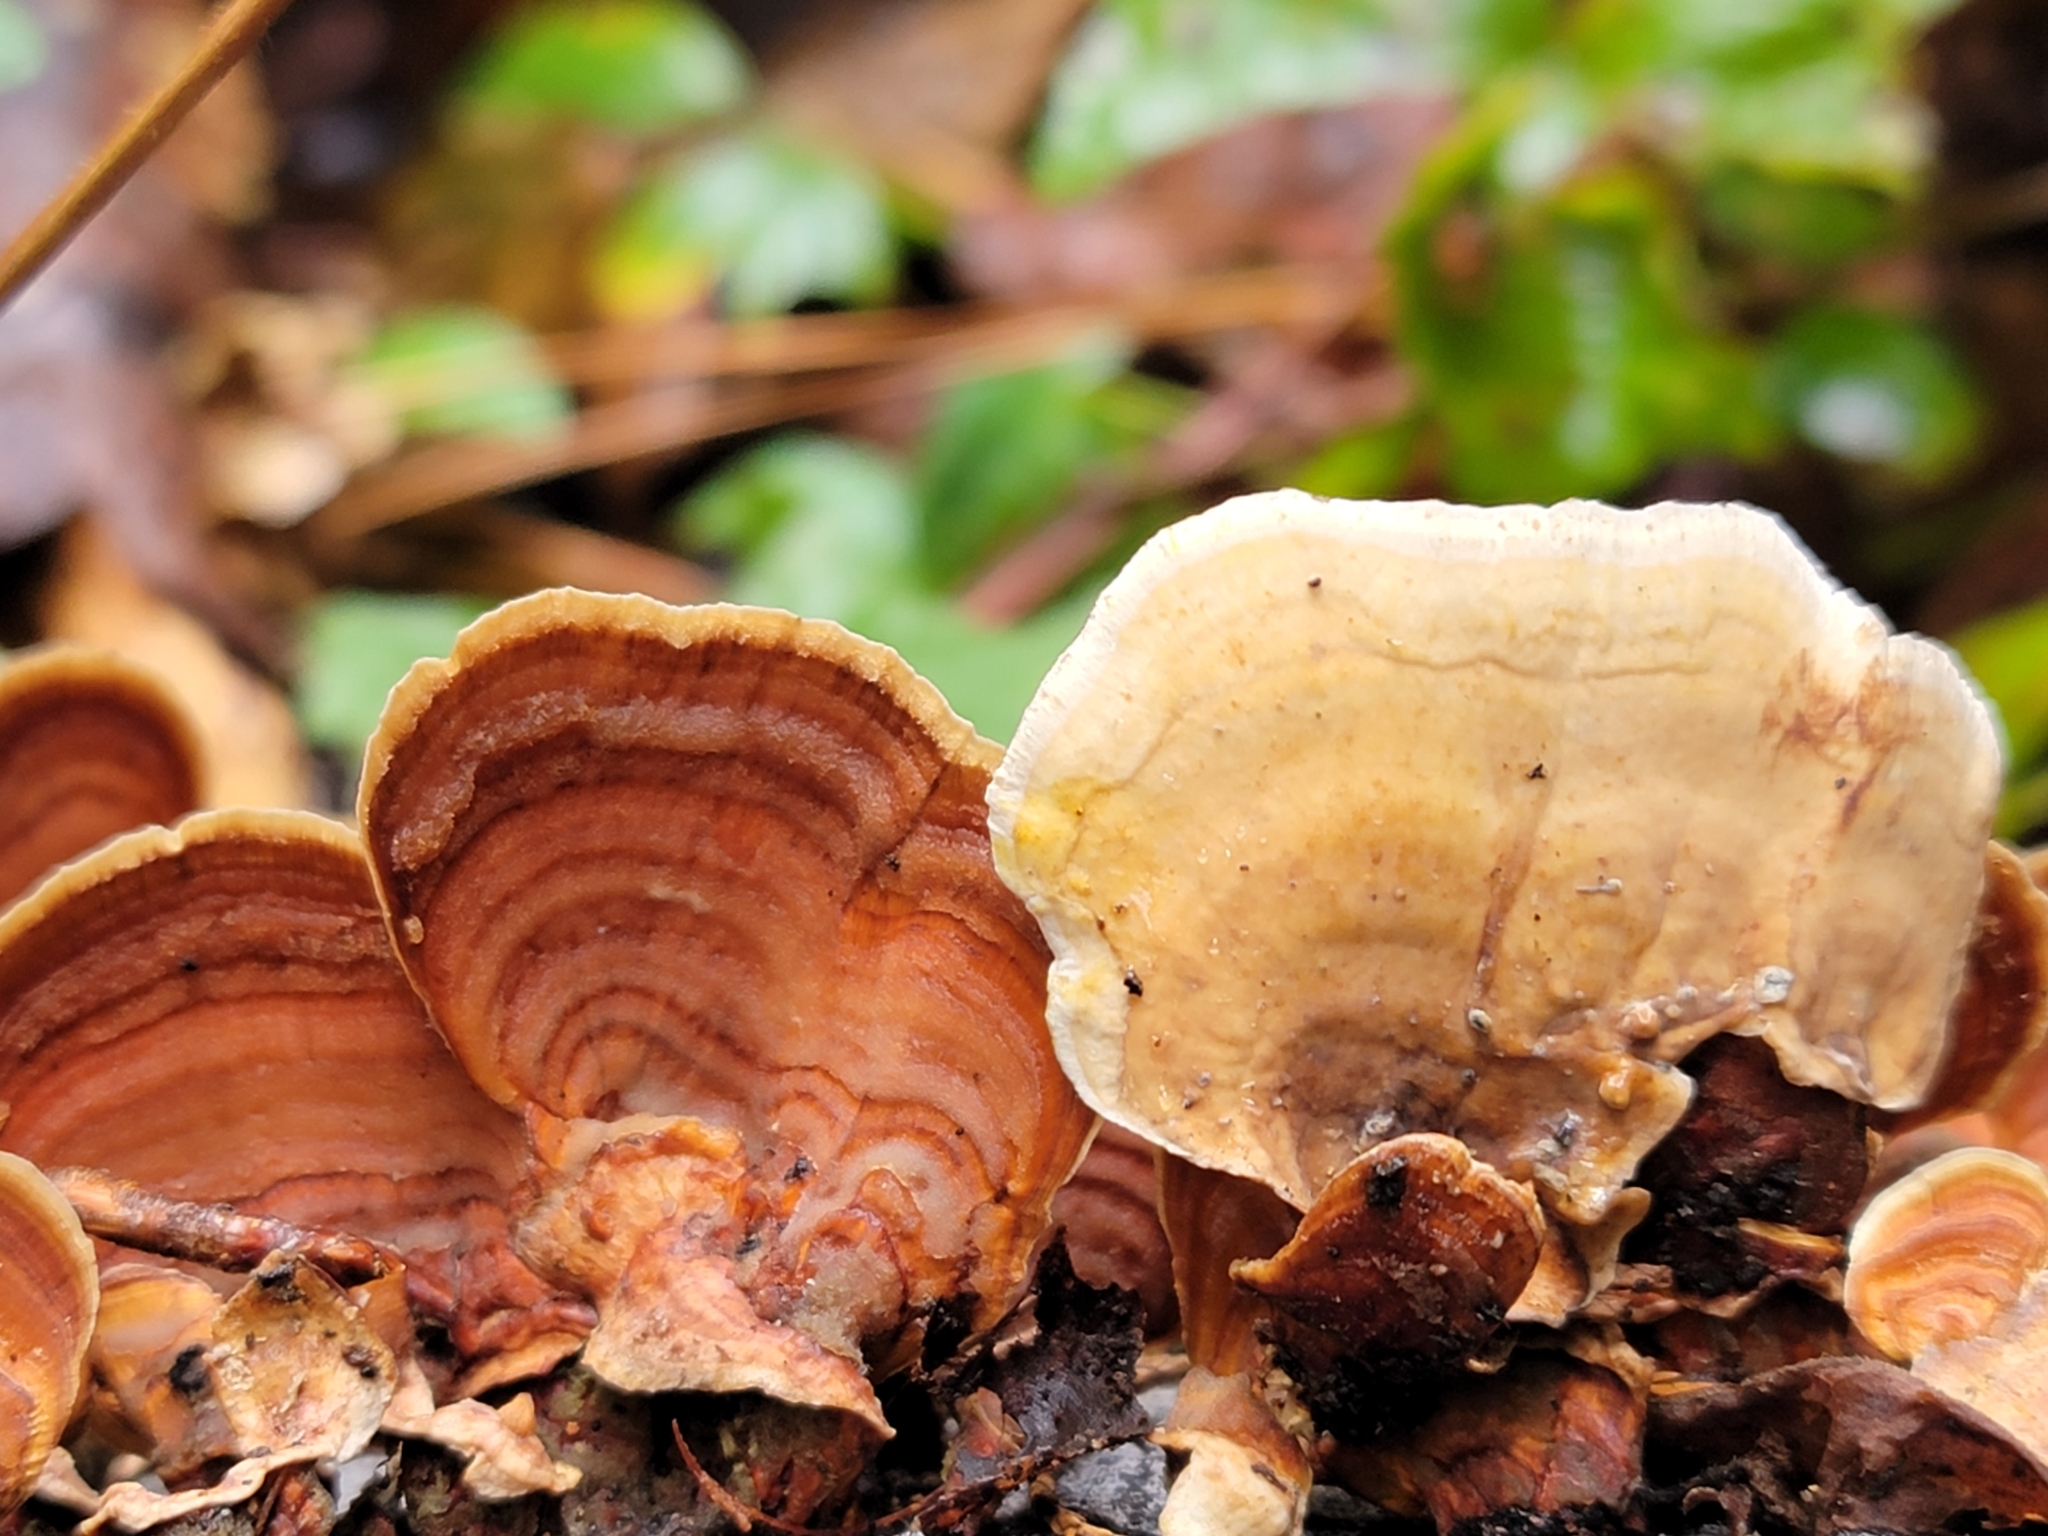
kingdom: Fungi
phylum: Basidiomycota
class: Agaricomycetes
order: Russulales
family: Stereaceae
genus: Stereum
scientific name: Stereum lobatum
